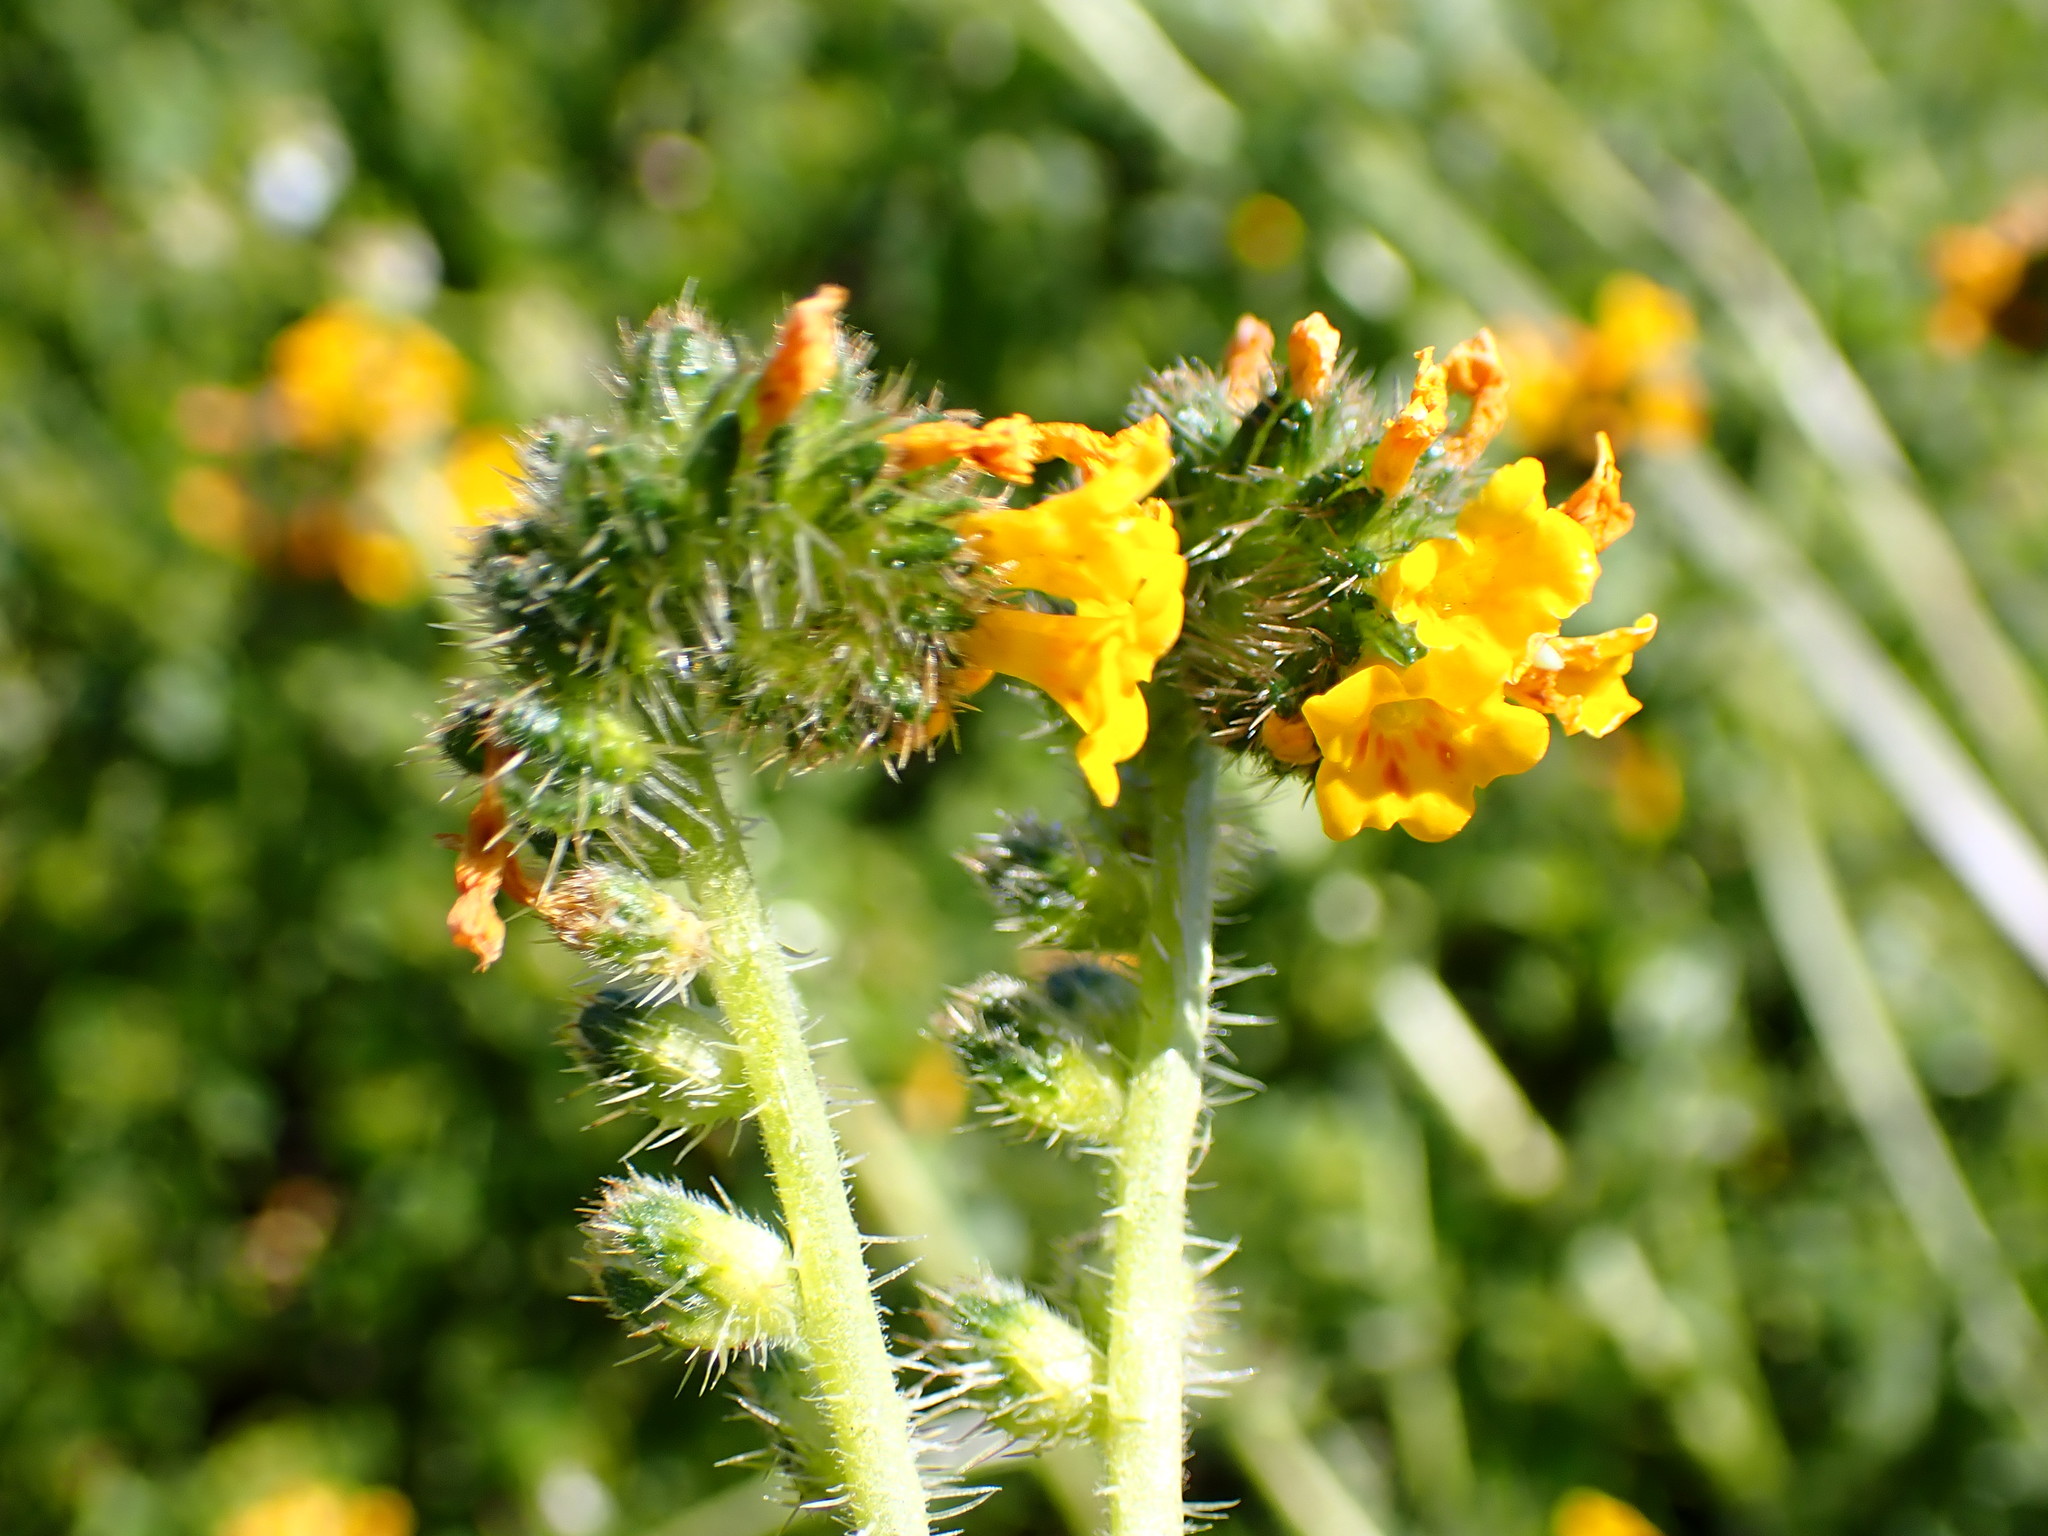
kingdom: Plantae
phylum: Tracheophyta
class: Magnoliopsida
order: Boraginales
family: Boraginaceae
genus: Amsinckia
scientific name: Amsinckia spectabilis
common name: Seaside fiddleneck
